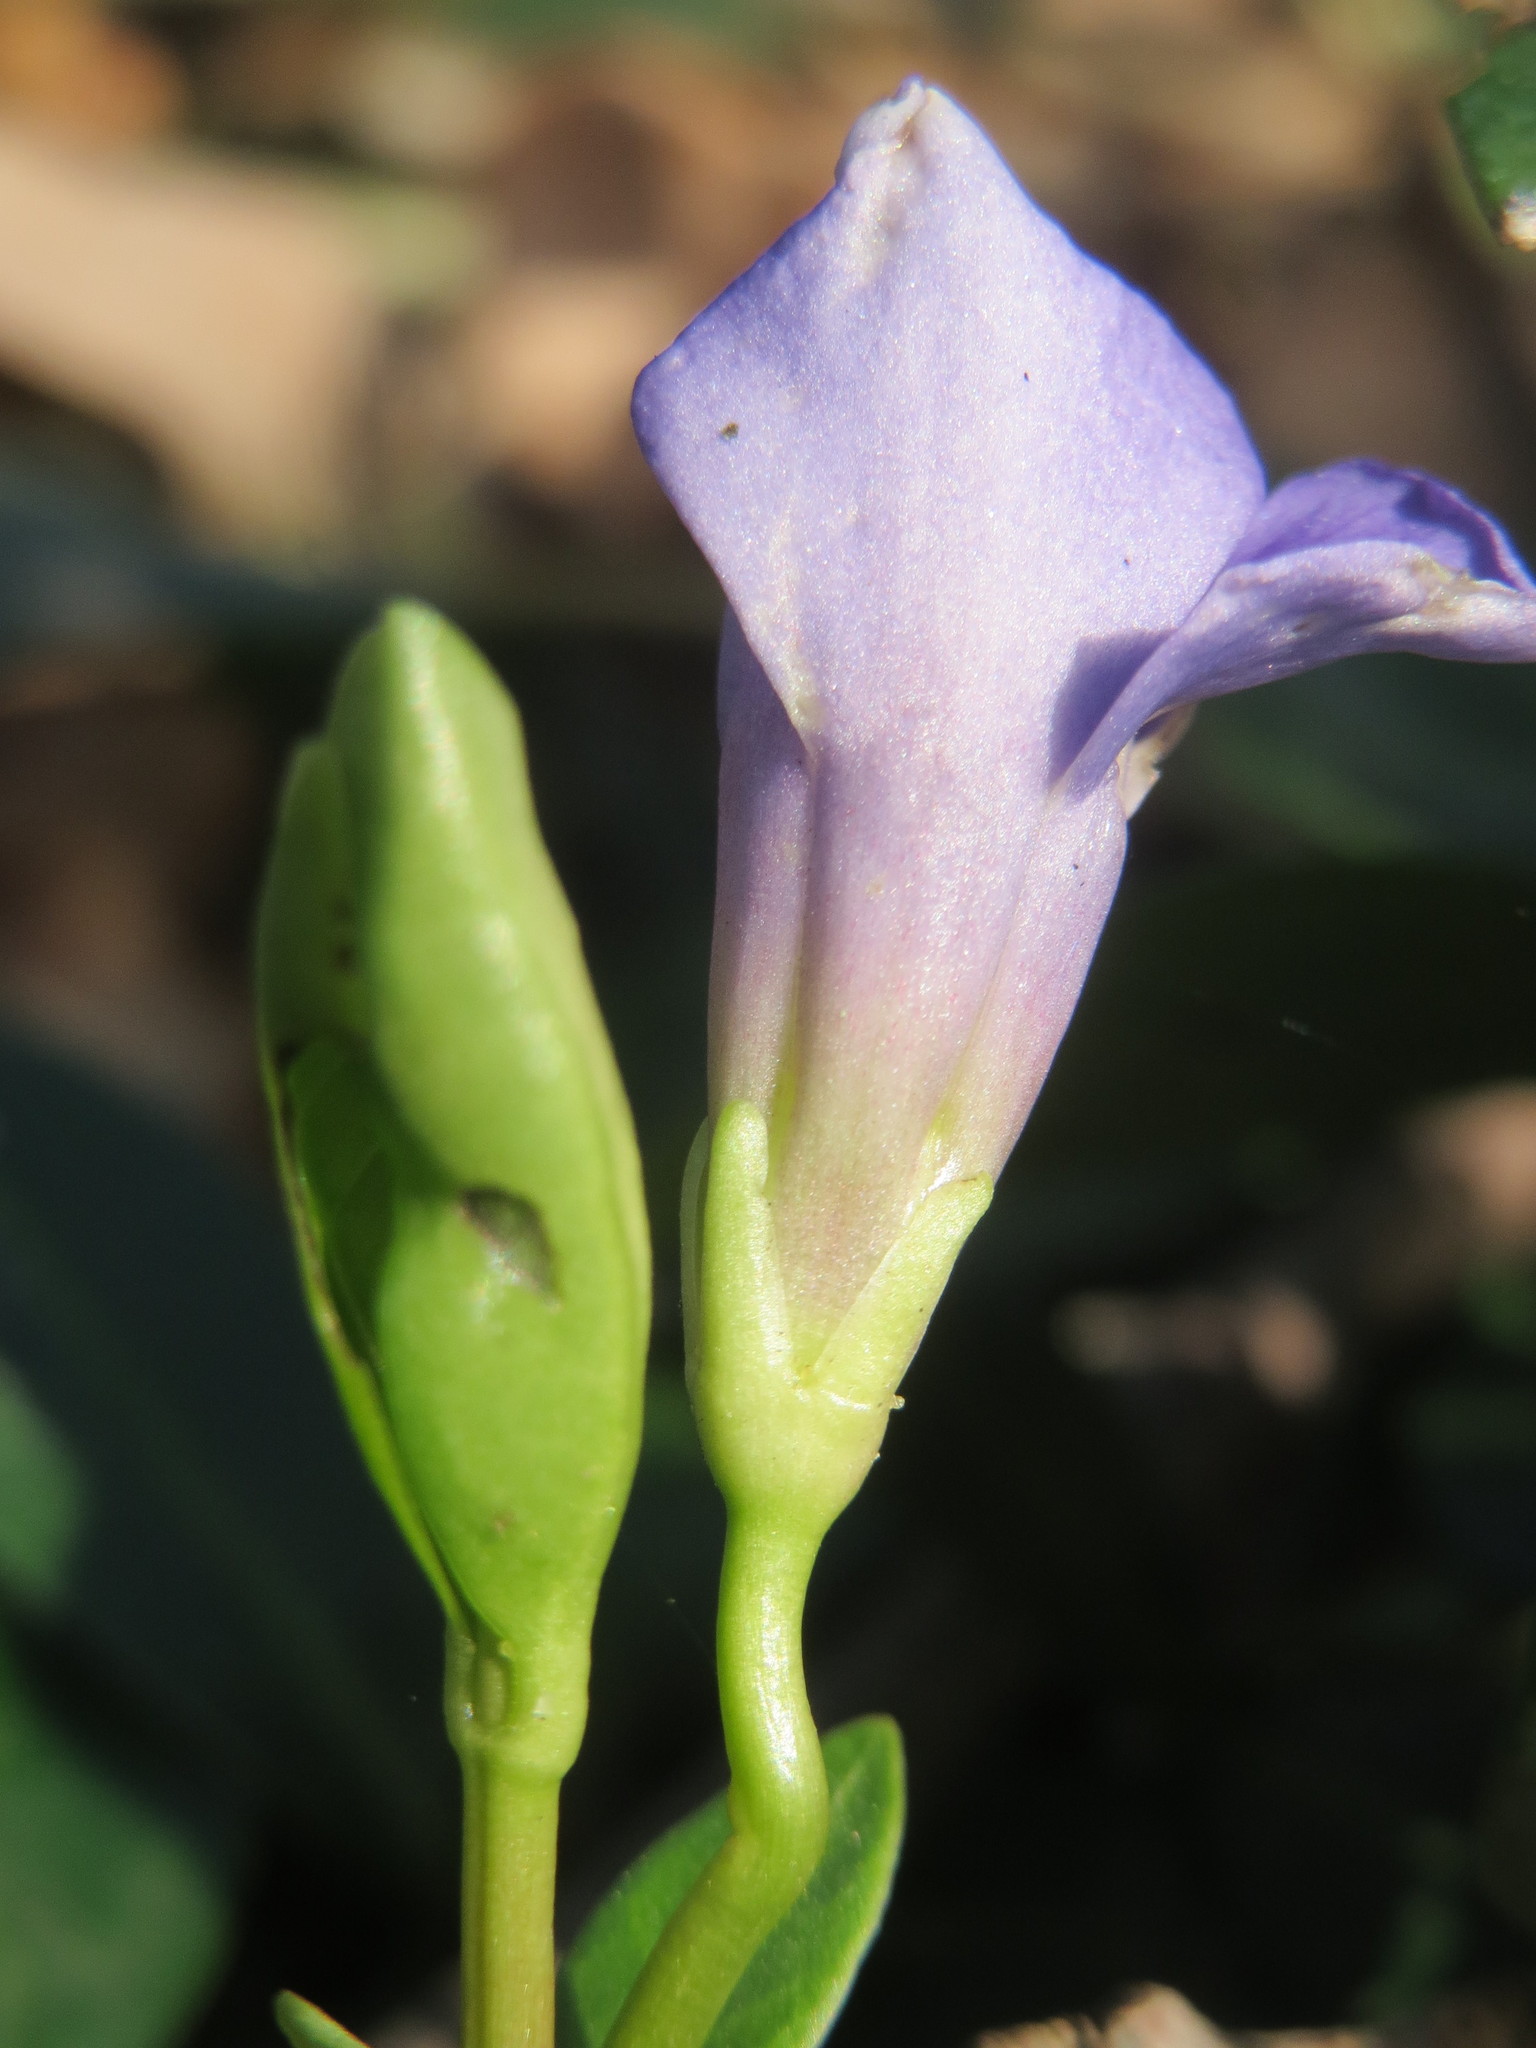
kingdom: Plantae
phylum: Tracheophyta
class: Magnoliopsida
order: Gentianales
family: Apocynaceae
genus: Vinca
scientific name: Vinca minor
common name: Lesser periwinkle
